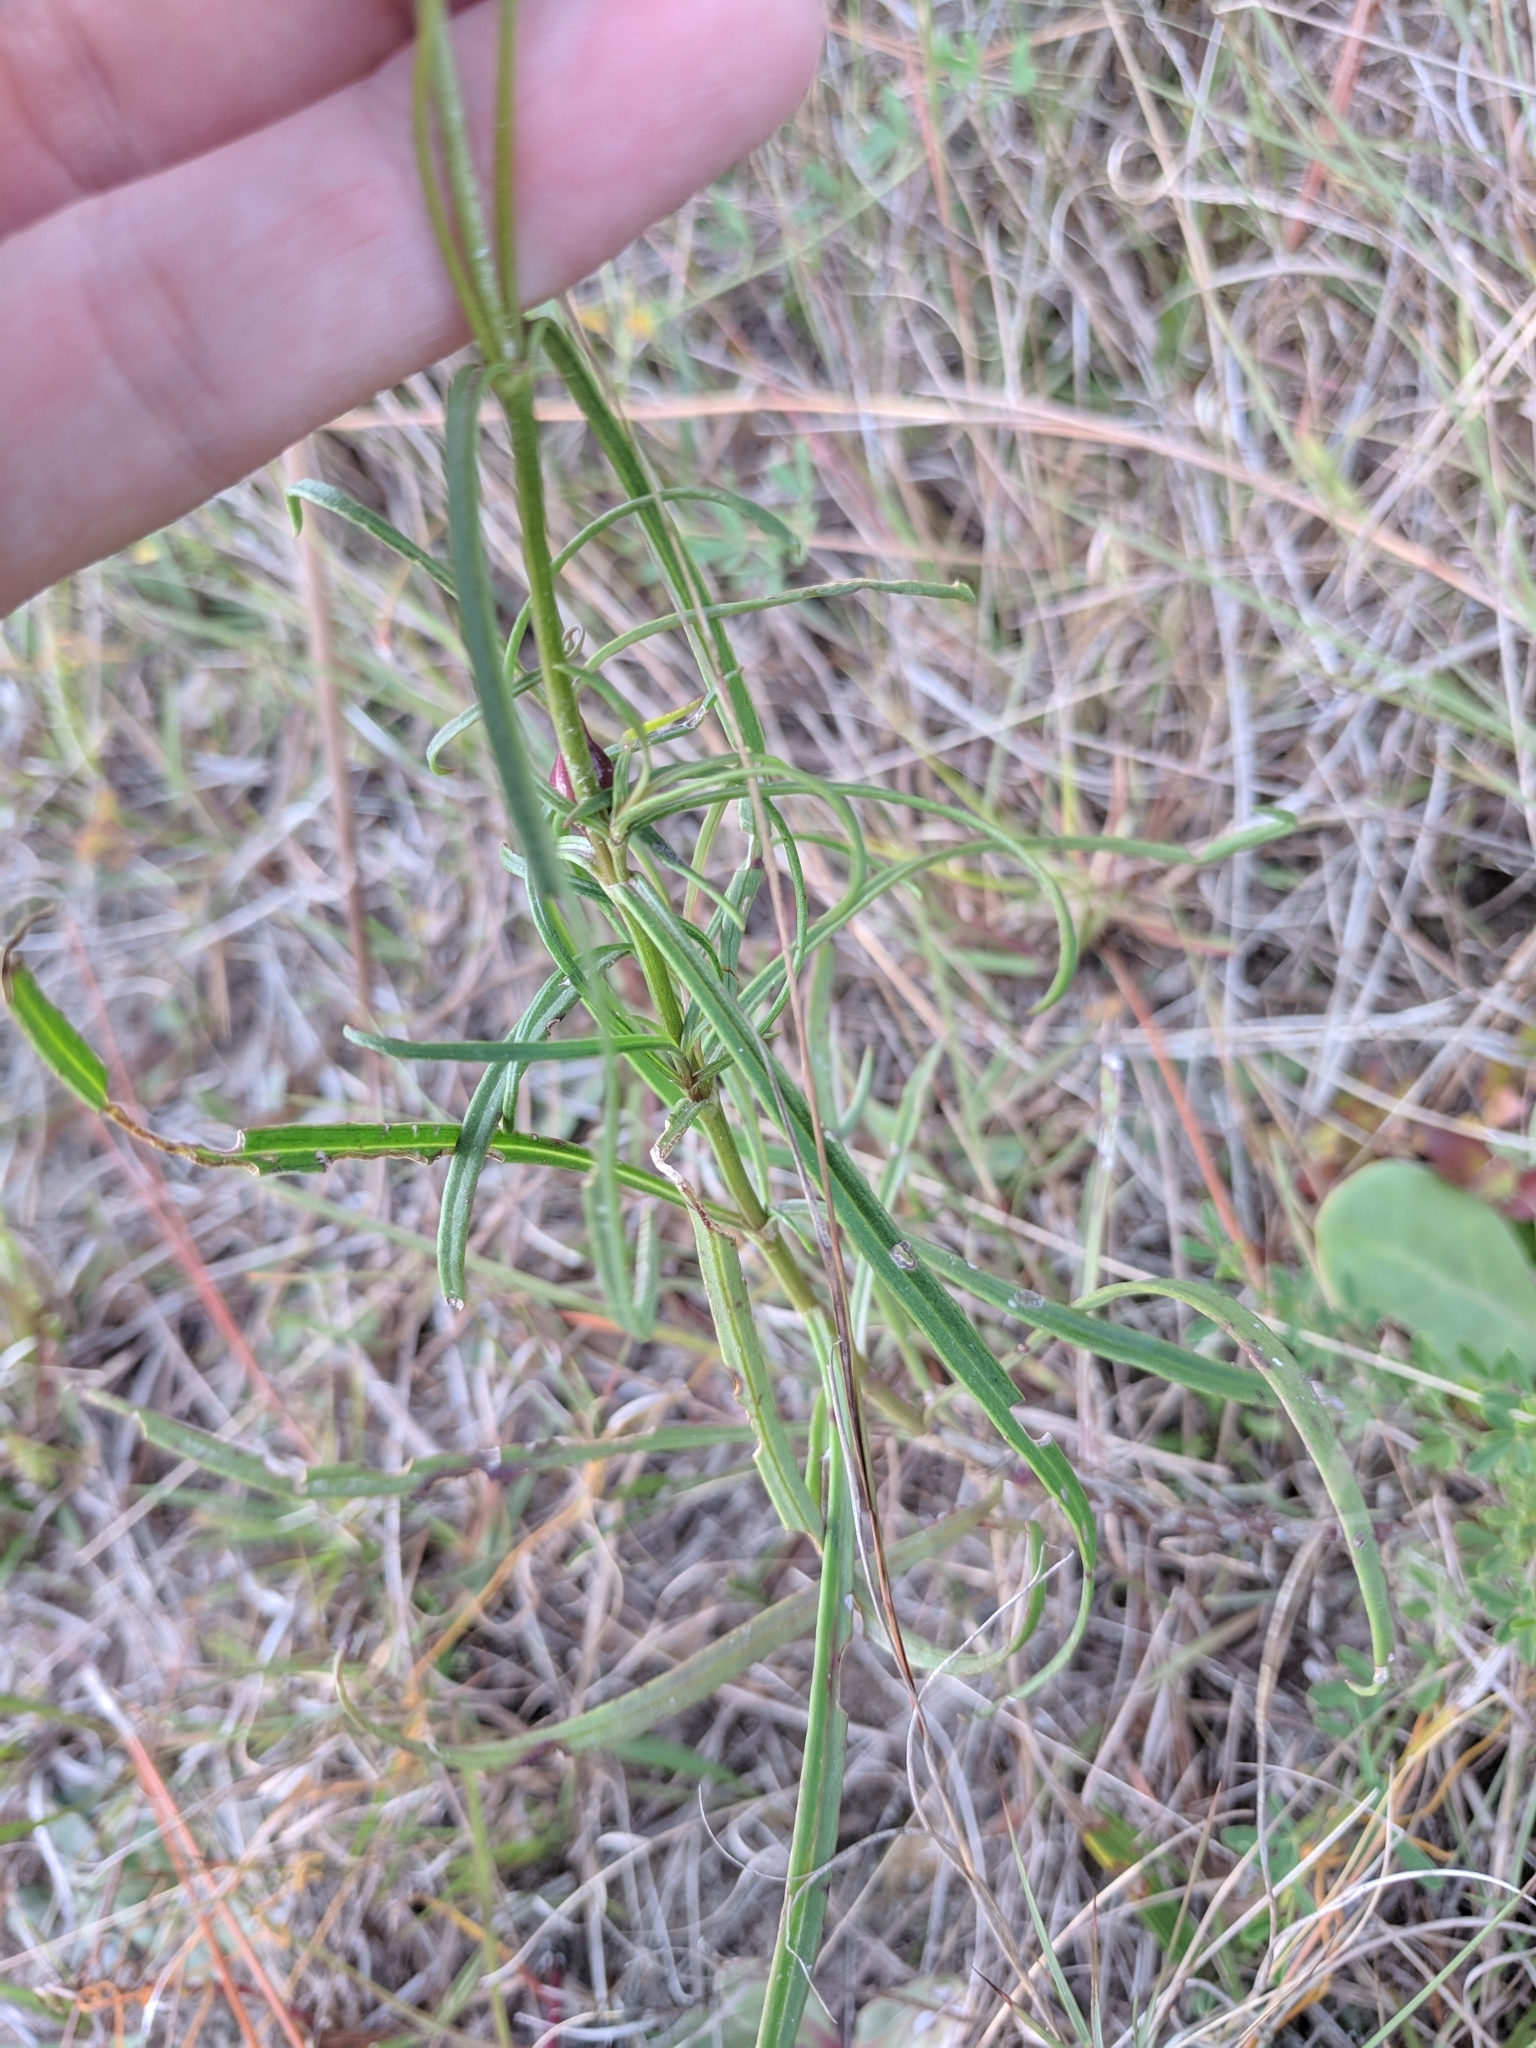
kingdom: Plantae
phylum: Tracheophyta
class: Magnoliopsida
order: Asterales
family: Asteraceae
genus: Flaveria
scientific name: Flaveria linearis
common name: Yellowtop
